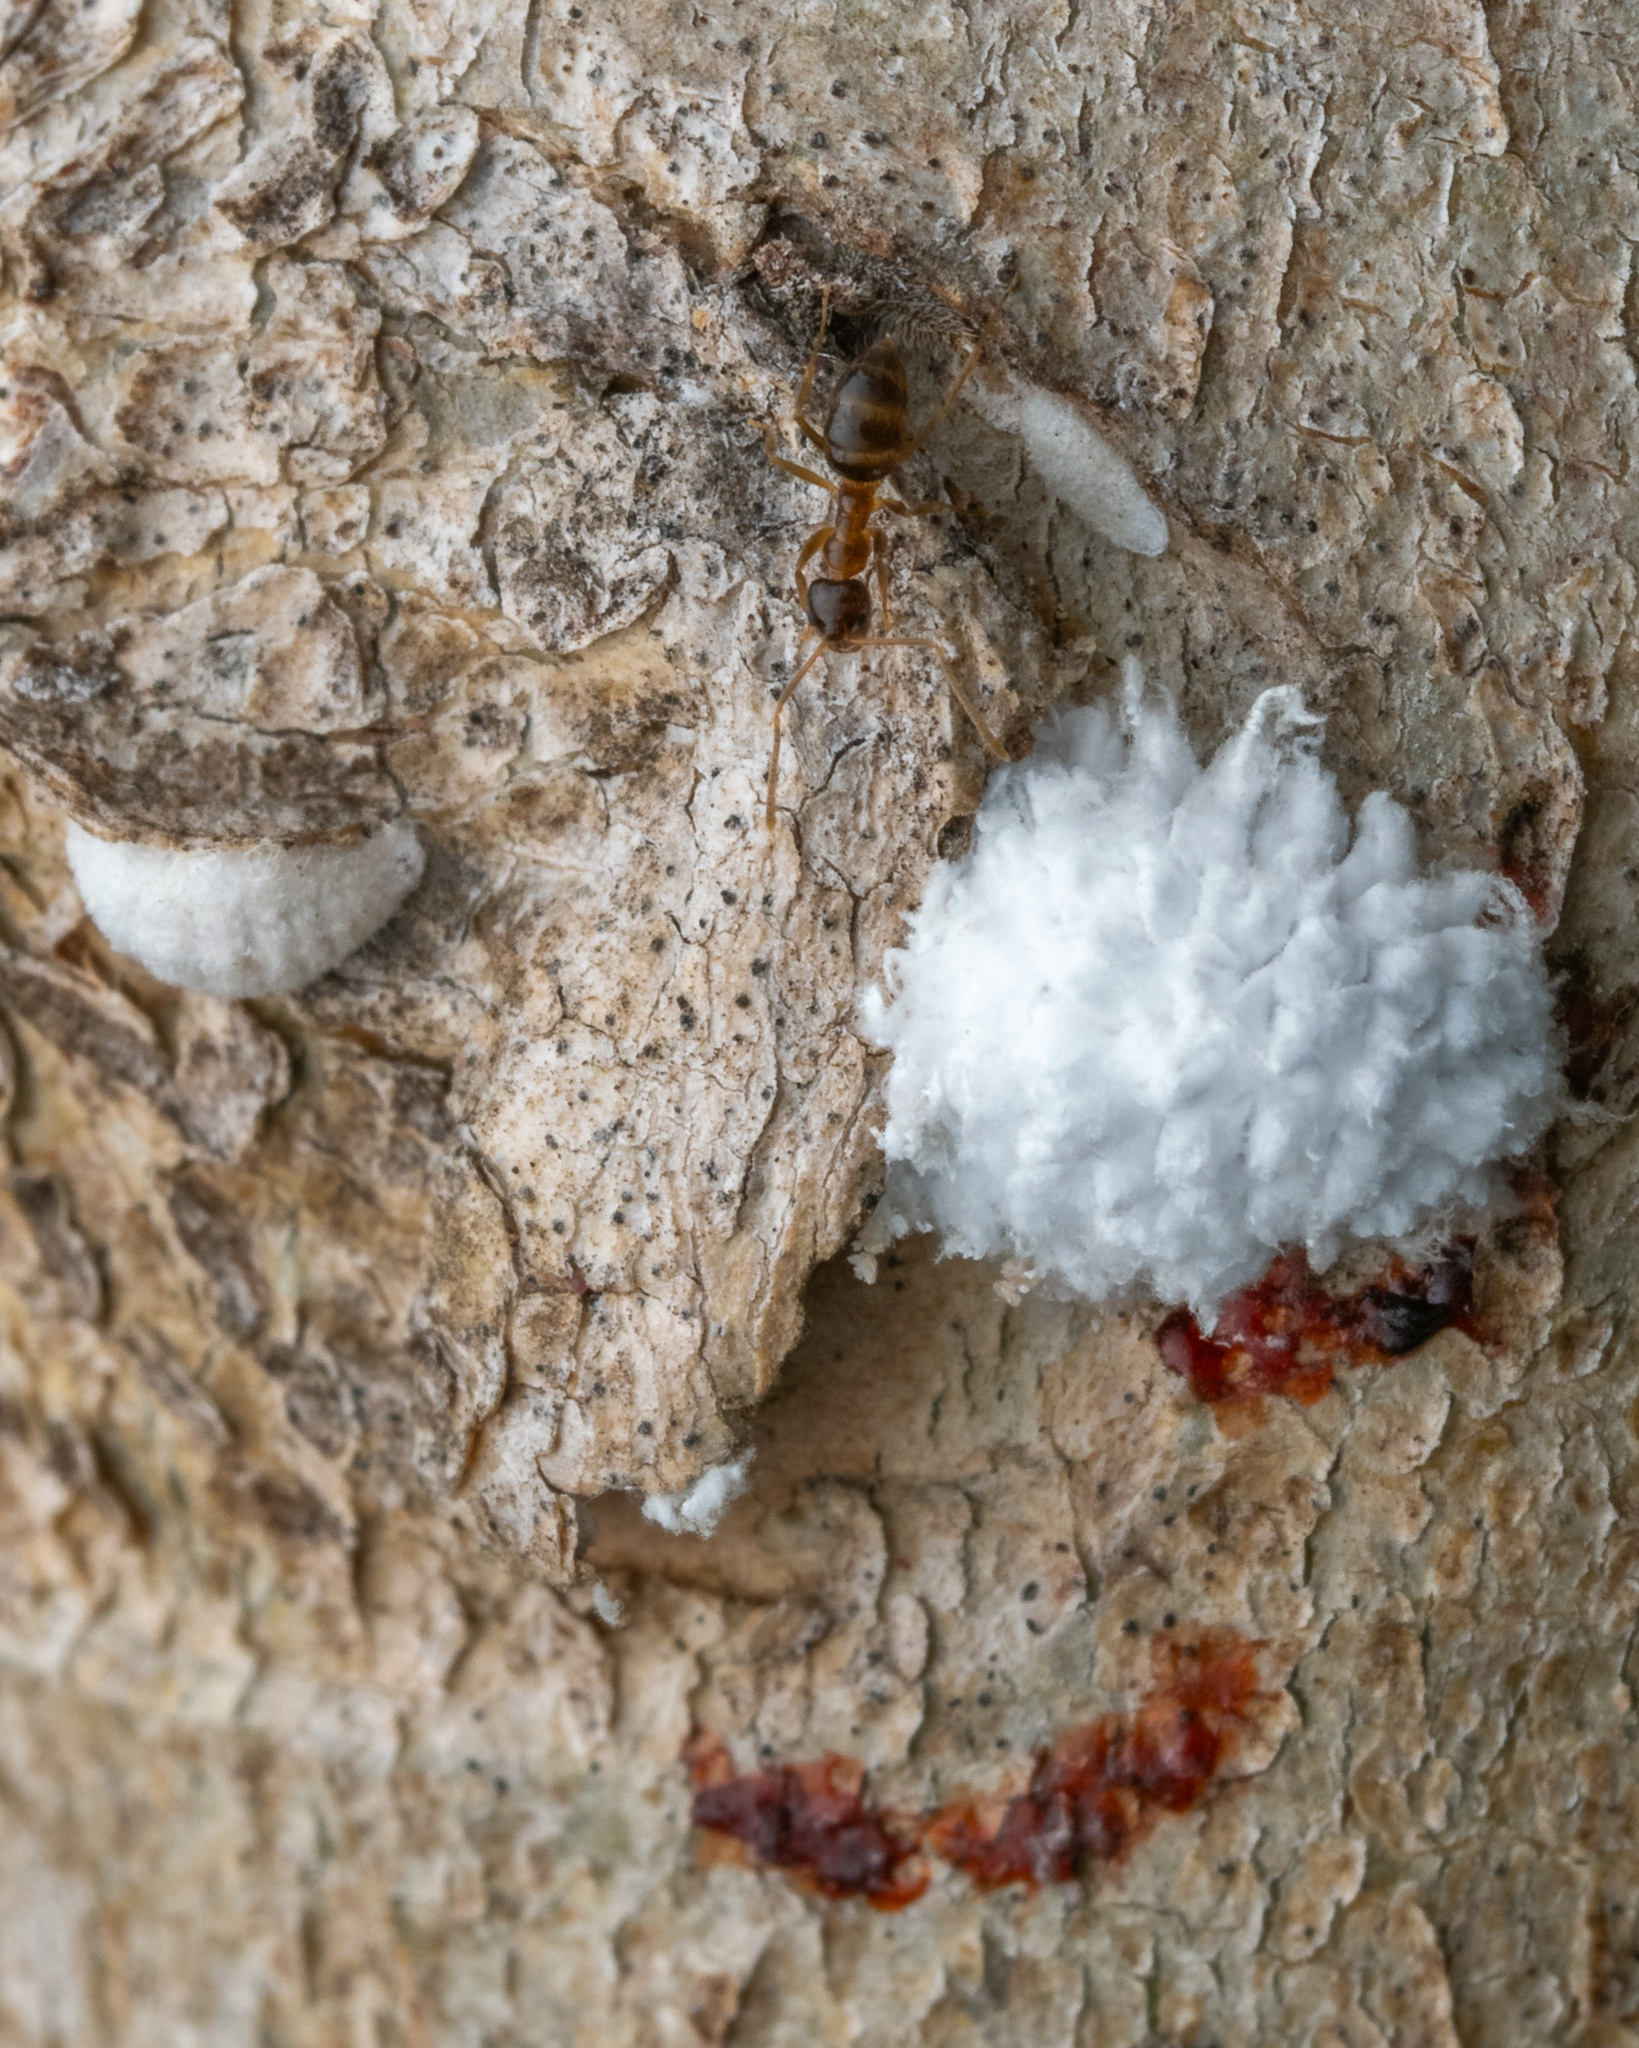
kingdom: Animalia
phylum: Arthropoda
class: Insecta
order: Hemiptera
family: Eriococcidae
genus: Eriococcus
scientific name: Eriococcus lagerstroemiae
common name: Crapemyrtle bark scale
